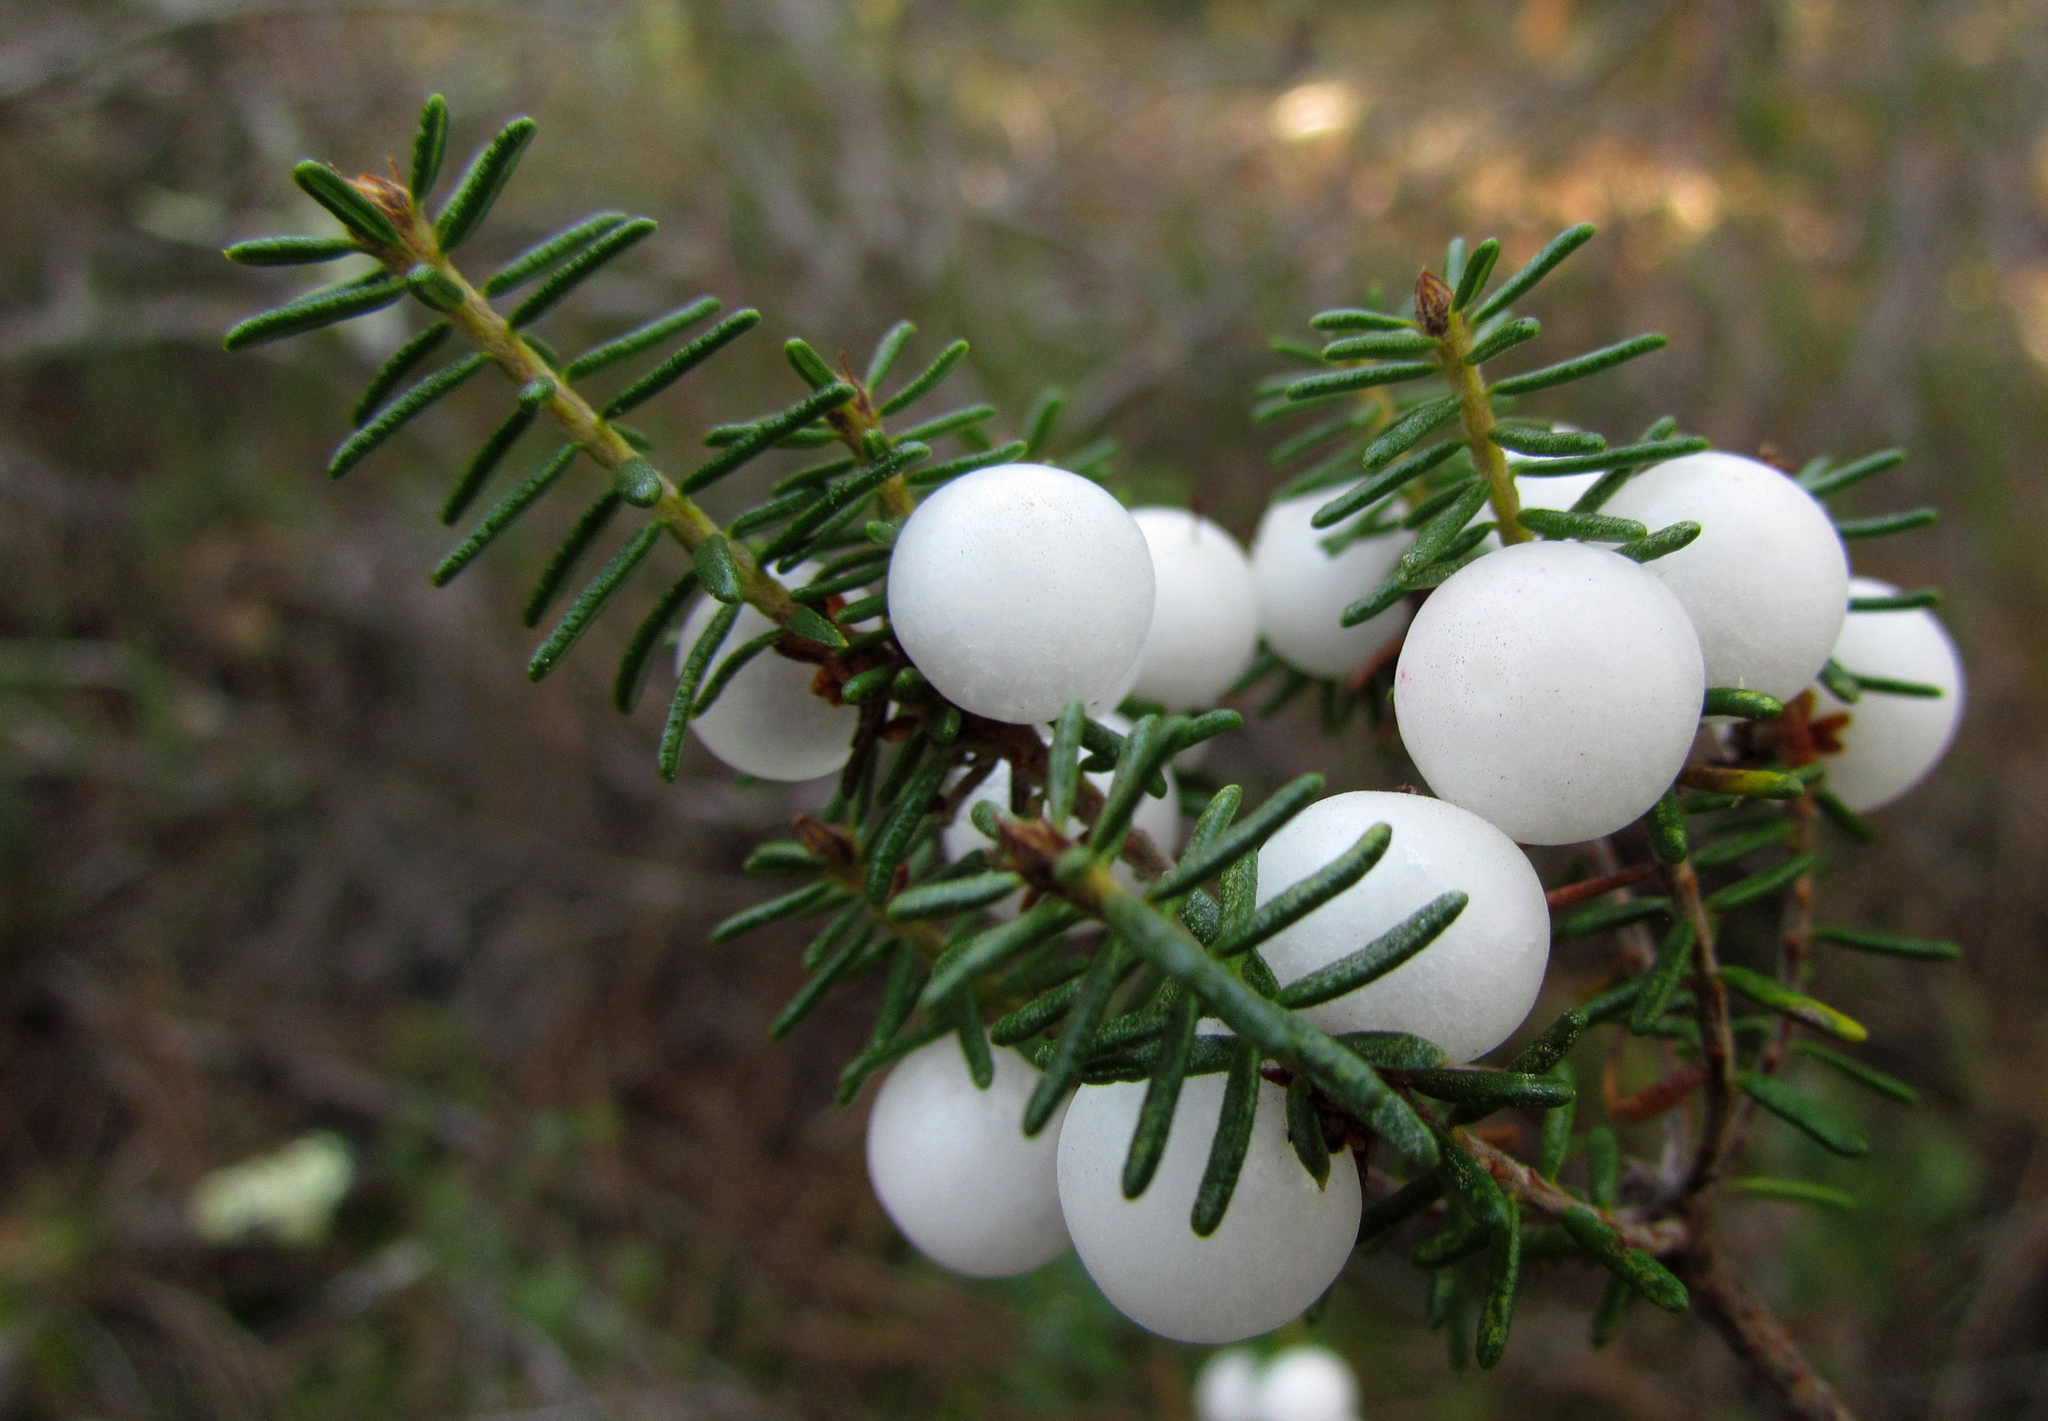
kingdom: Plantae
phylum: Tracheophyta
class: Magnoliopsida
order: Ericales
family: Ericaceae
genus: Corema
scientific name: Corema album
